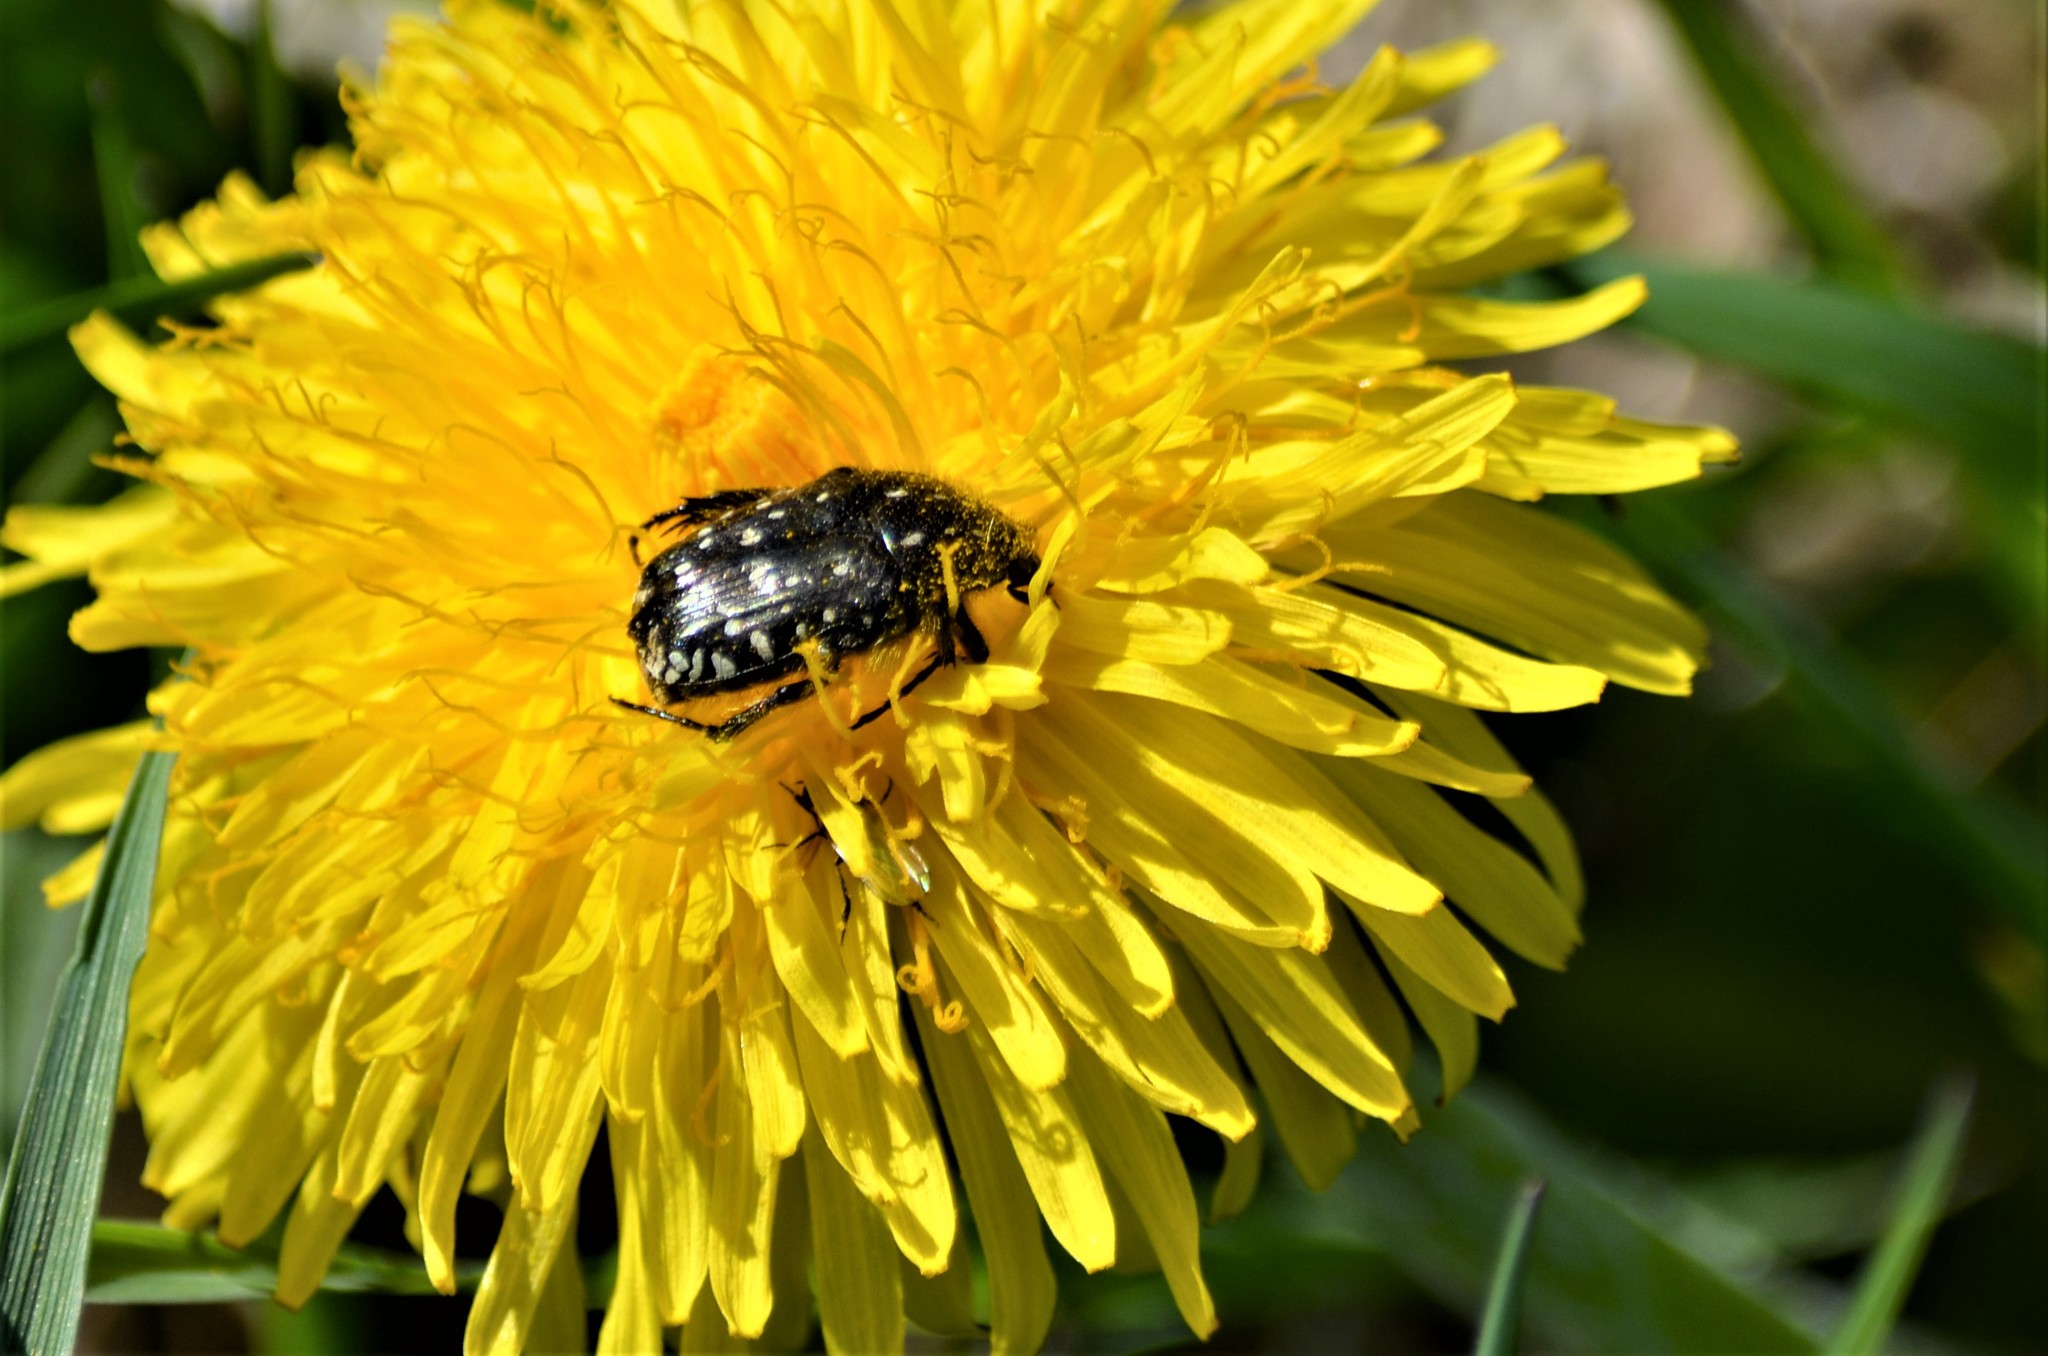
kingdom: Animalia
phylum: Arthropoda
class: Insecta
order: Coleoptera
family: Scarabaeidae
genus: Oxythyrea
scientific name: Oxythyrea funesta
